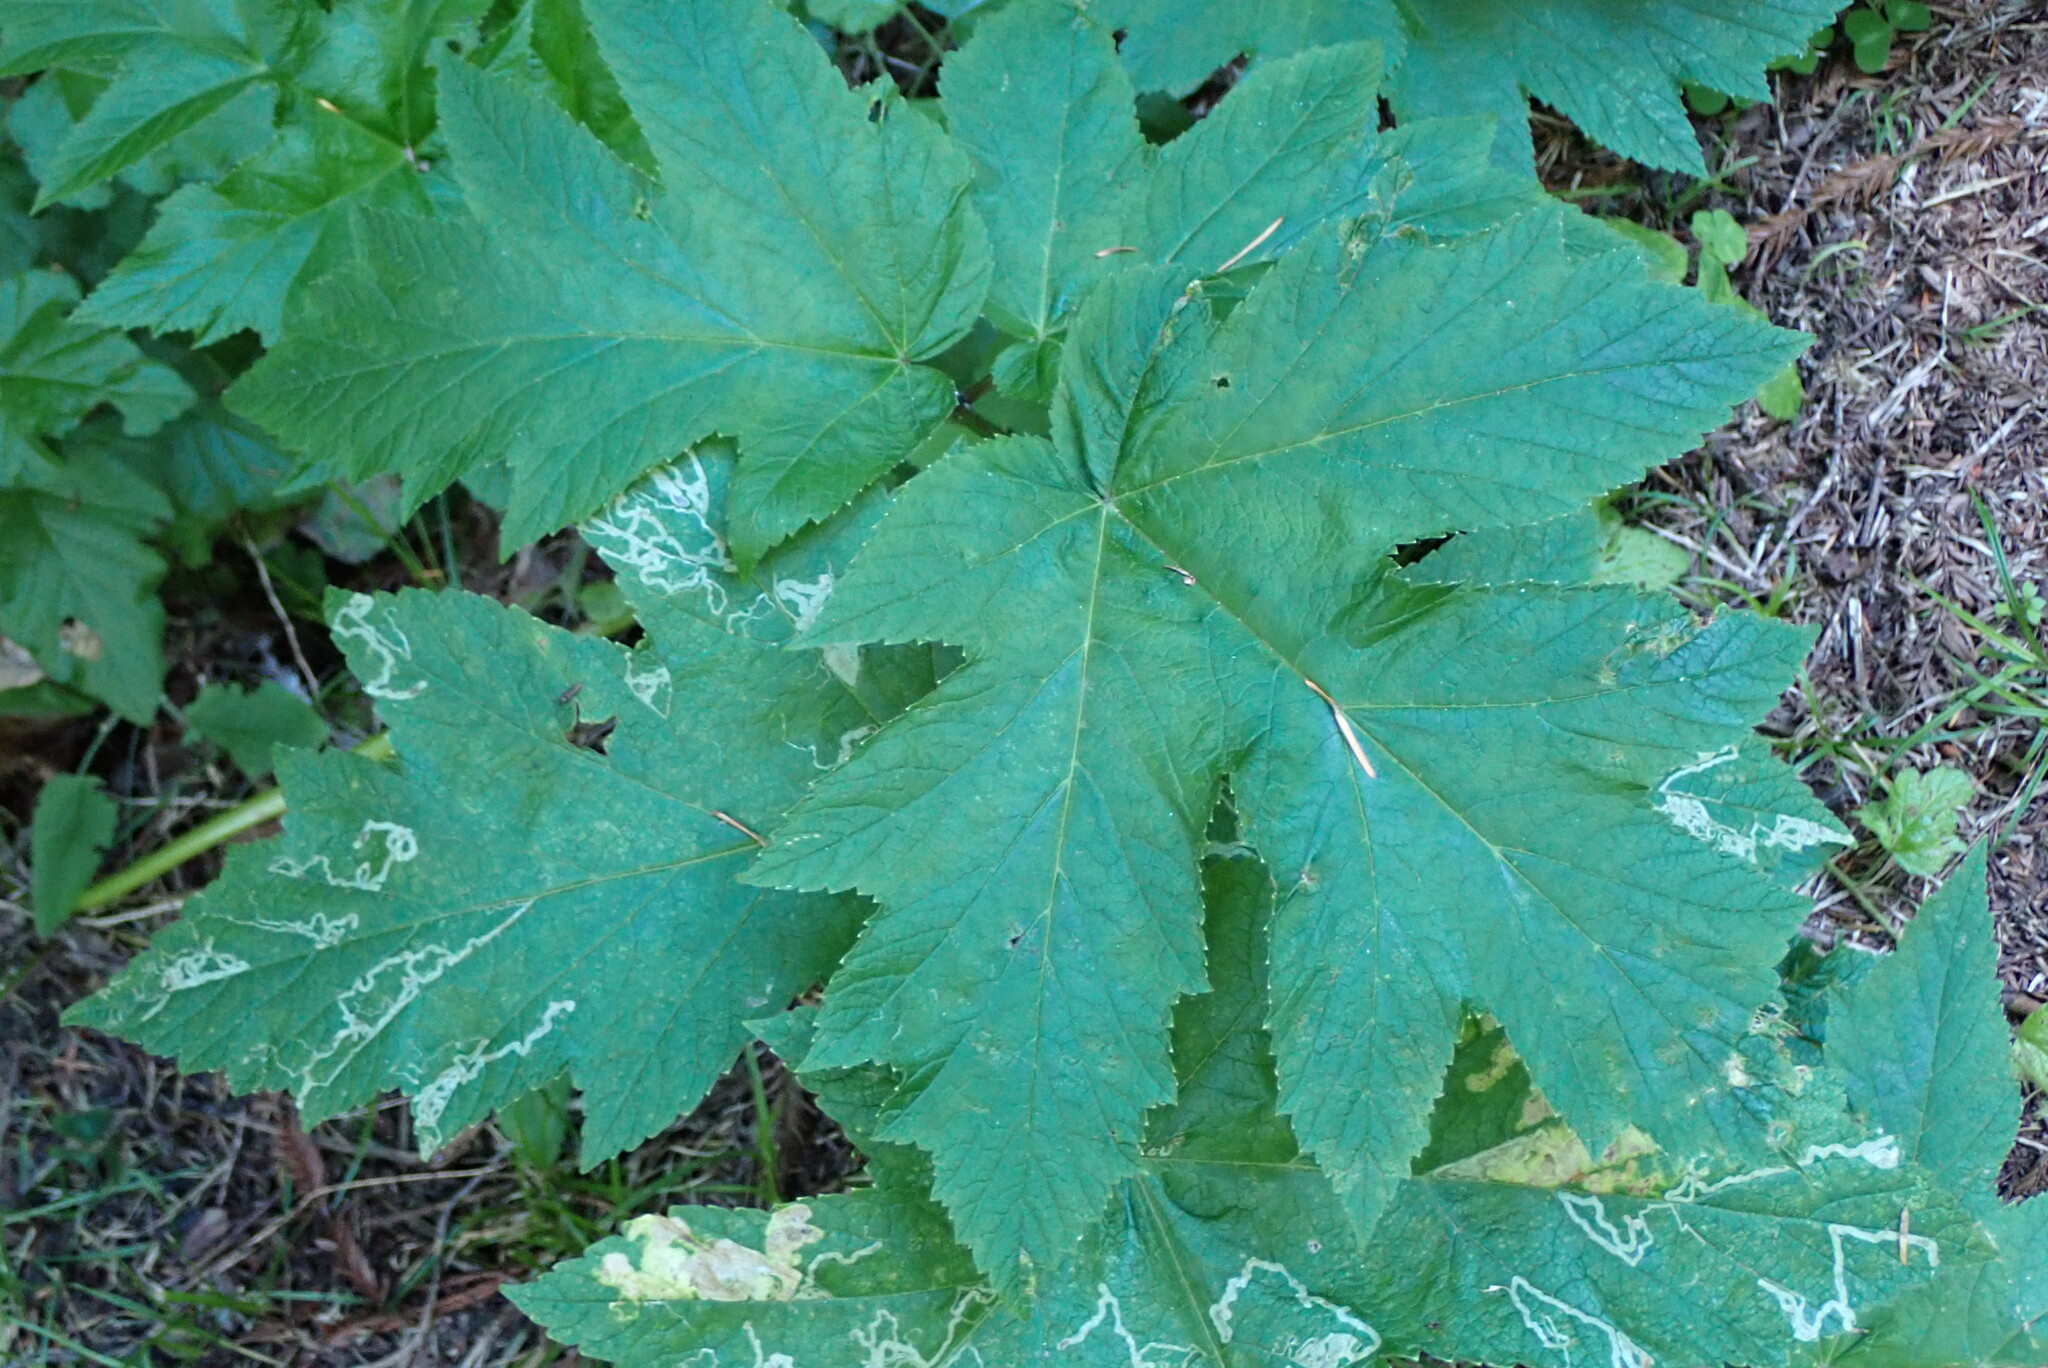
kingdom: Plantae
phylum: Tracheophyta
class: Magnoliopsida
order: Apiales
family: Apiaceae
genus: Heracleum
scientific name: Heracleum maximum
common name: American cow parsnip
